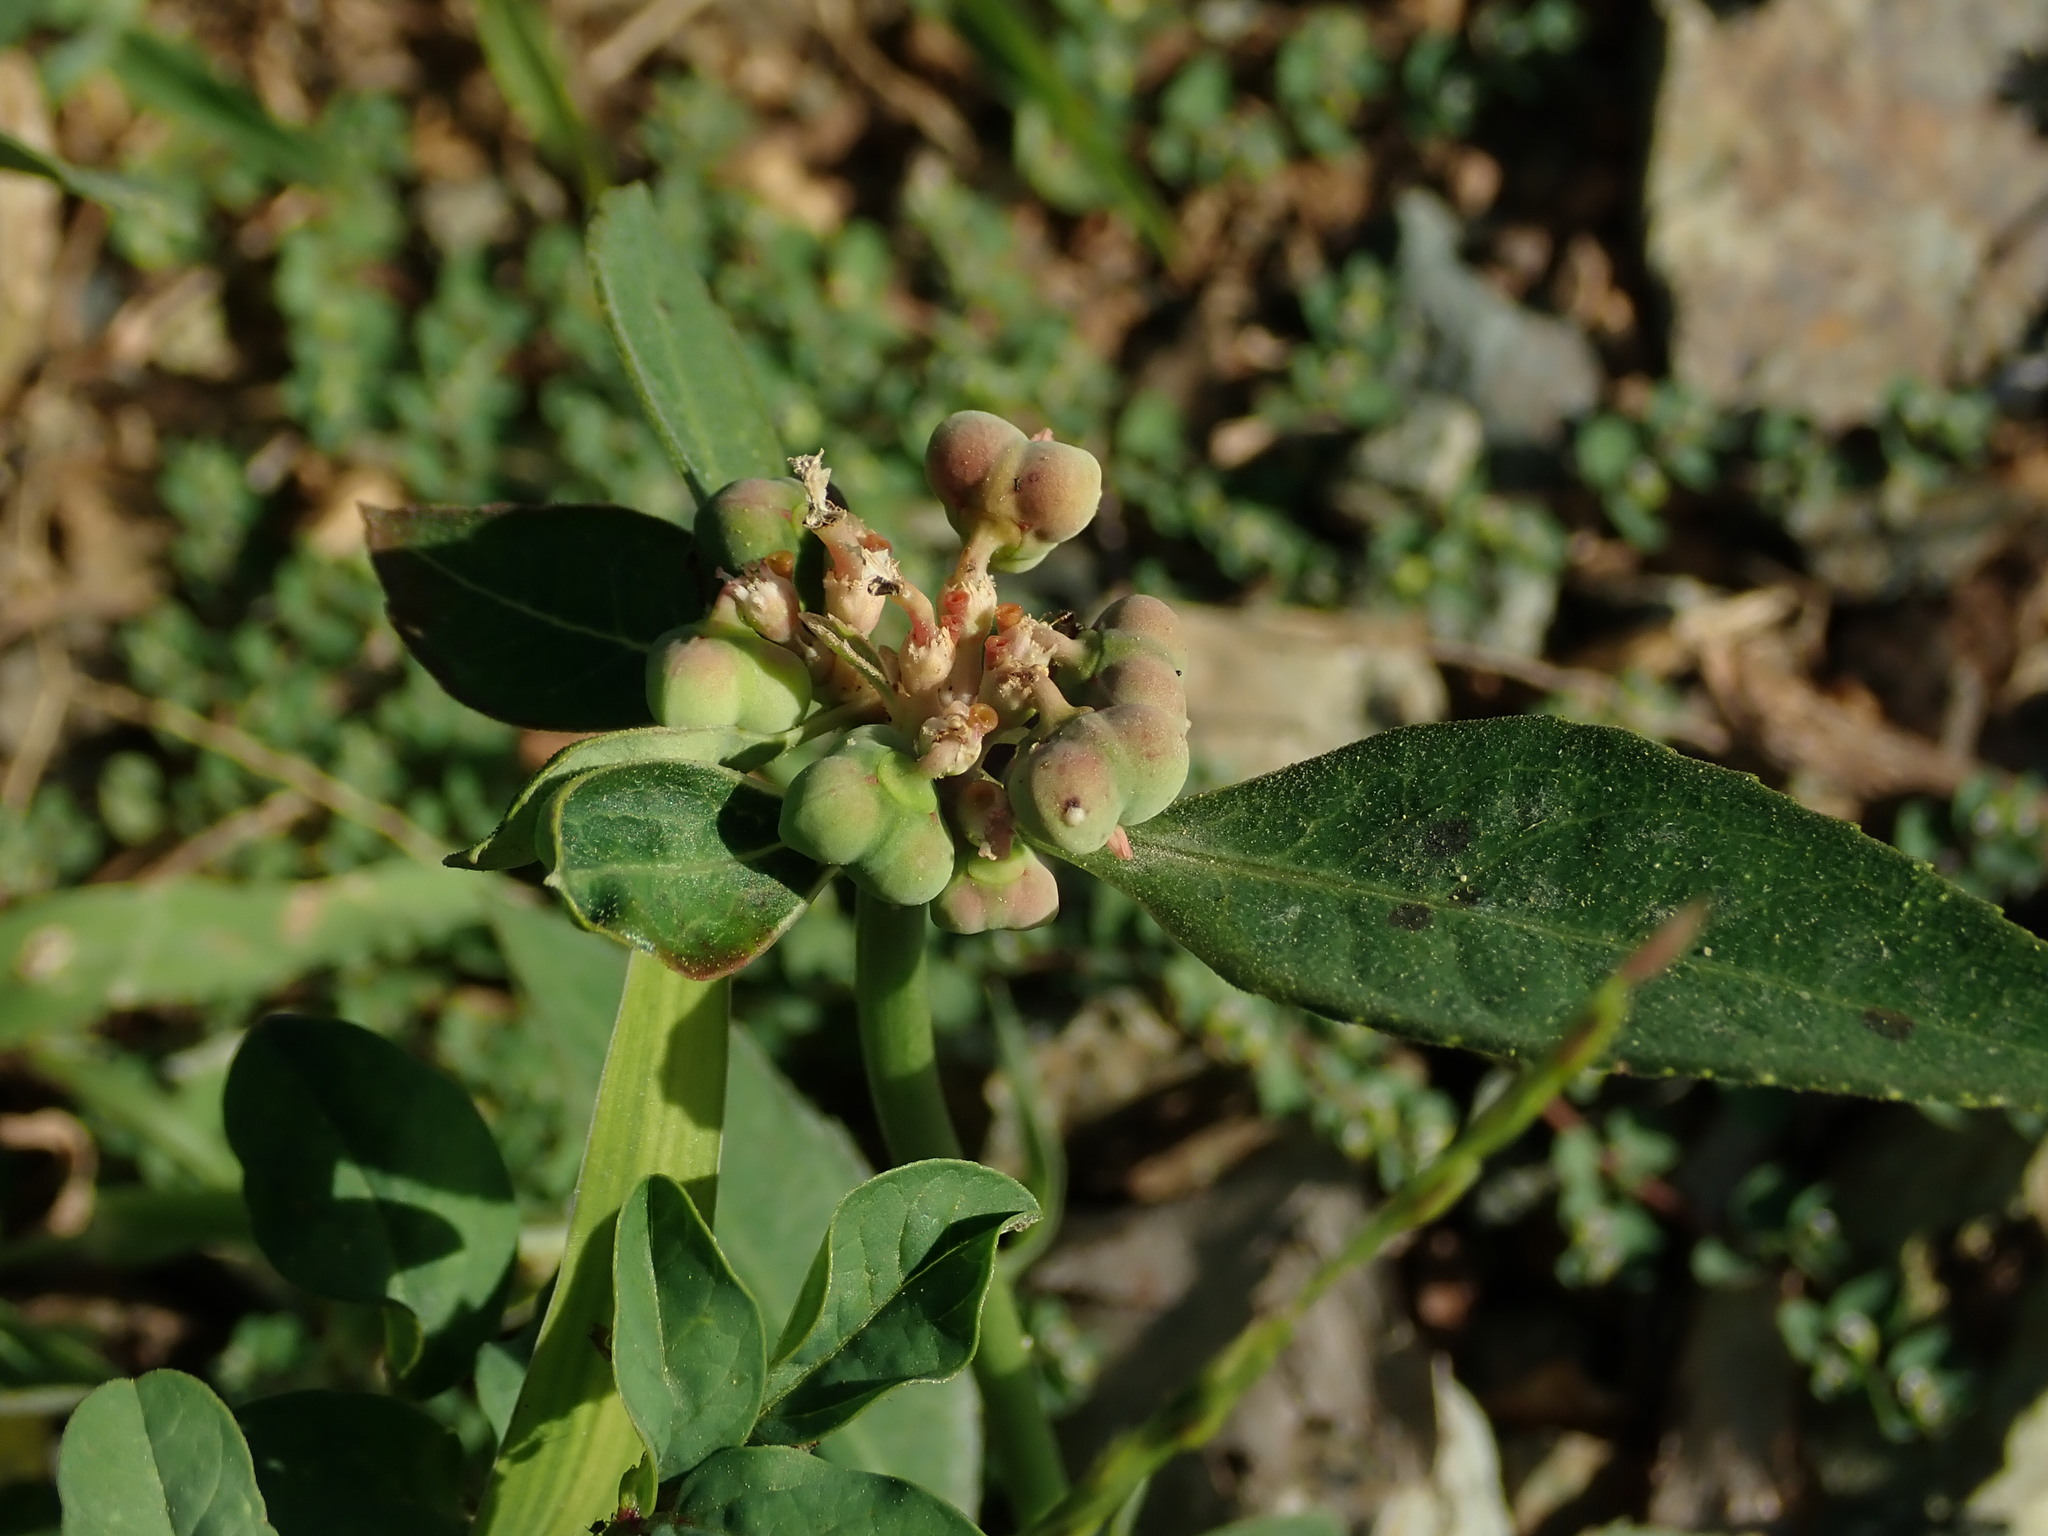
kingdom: Plantae
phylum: Tracheophyta
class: Magnoliopsida
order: Malpighiales
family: Euphorbiaceae
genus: Euphorbia
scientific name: Euphorbia heterophylla
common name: Mexican fireplant
